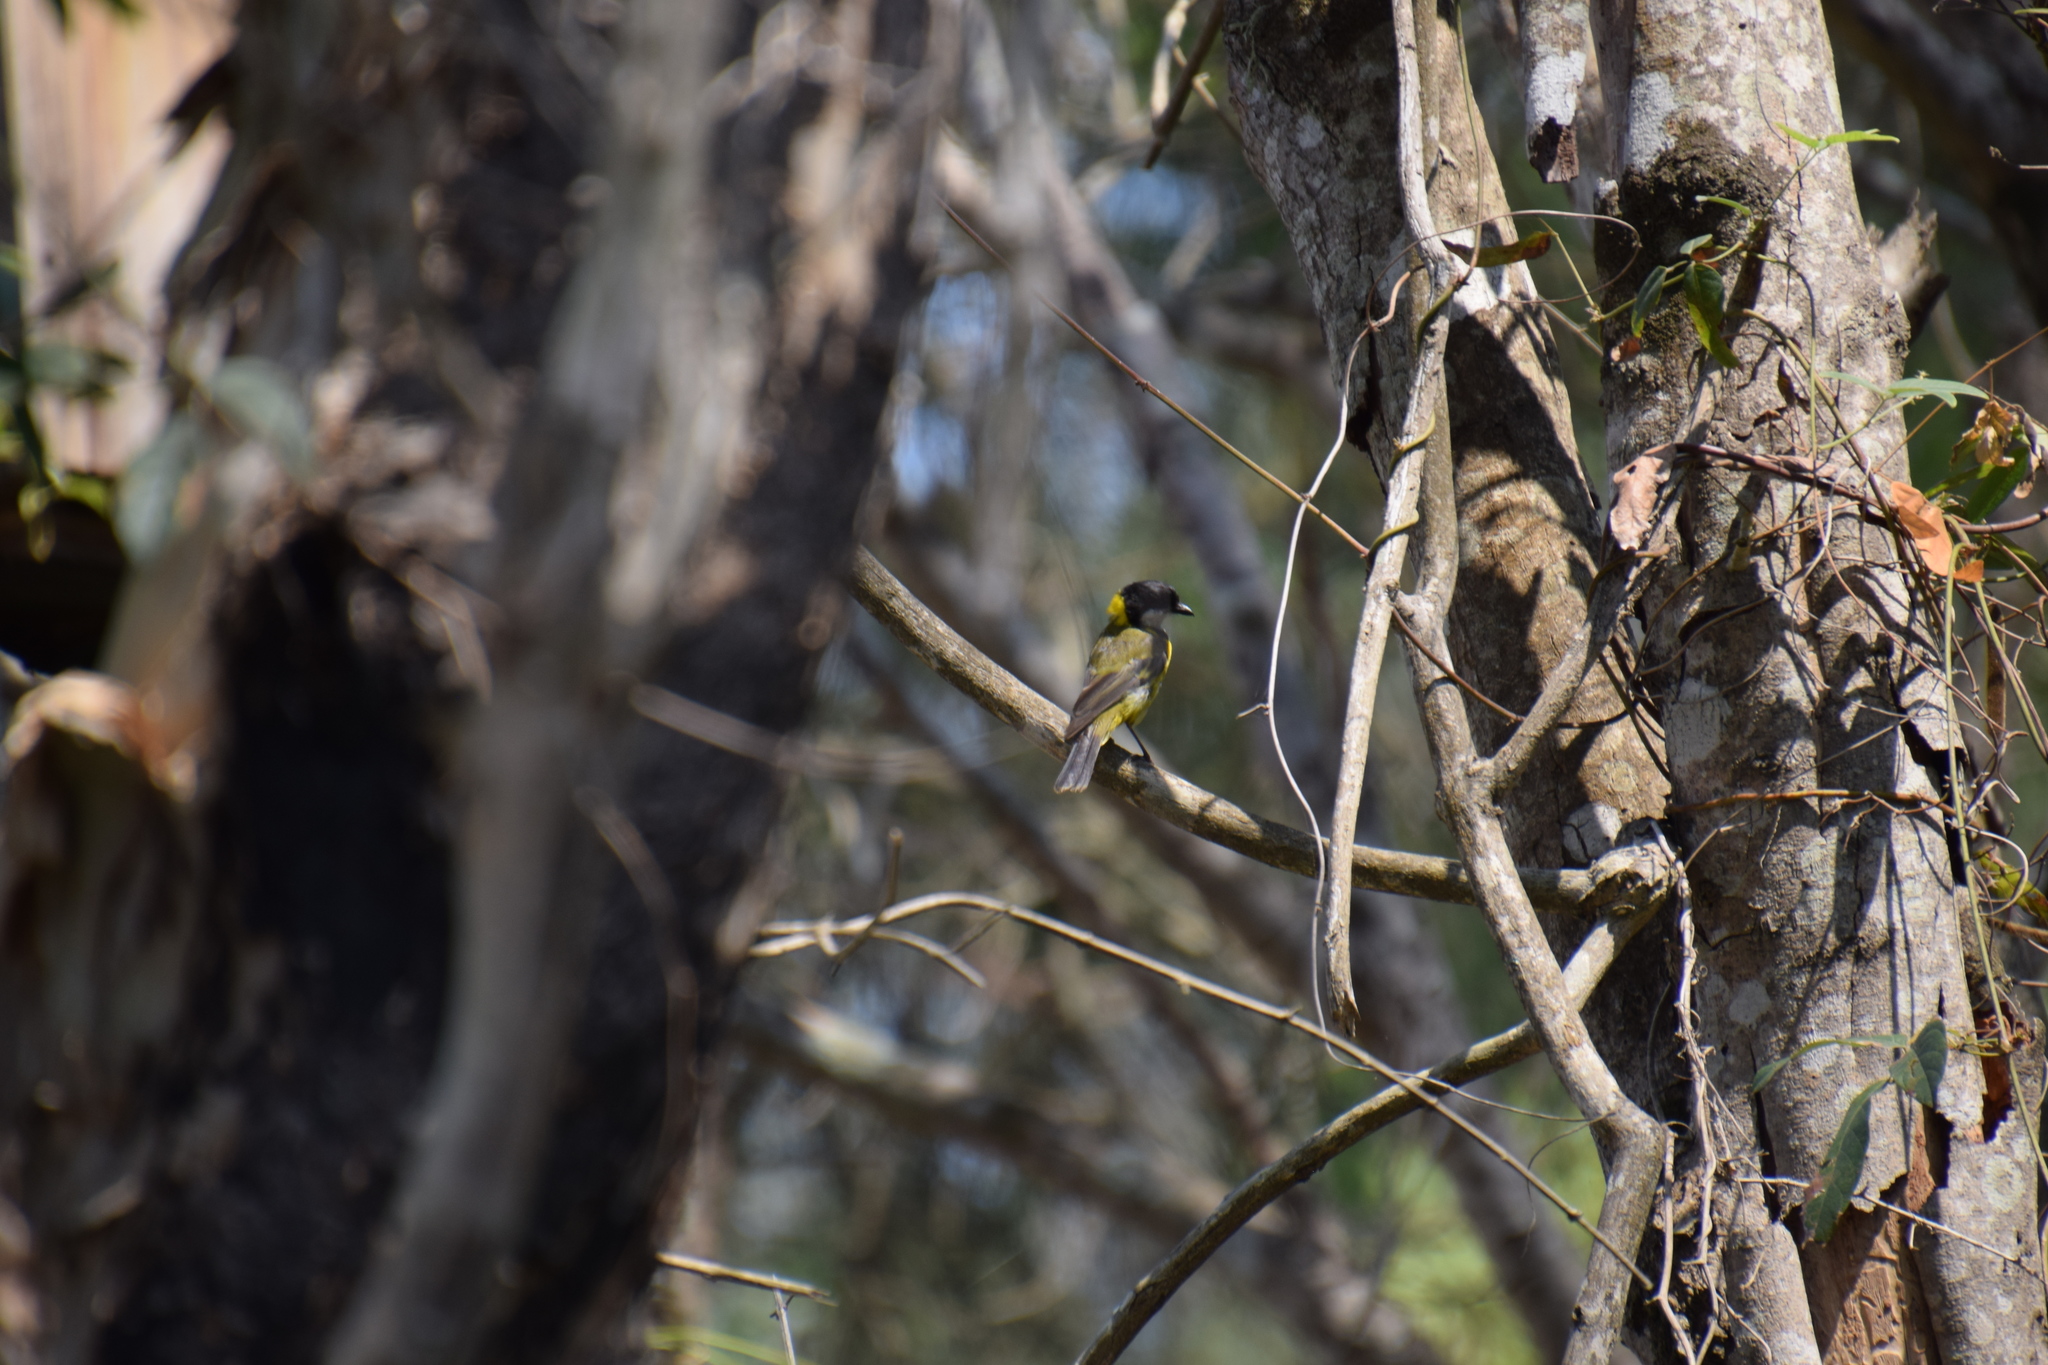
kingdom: Animalia
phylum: Chordata
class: Aves
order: Passeriformes
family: Pachycephalidae
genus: Pachycephala
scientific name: Pachycephala pectoralis
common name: Australian golden whistler
